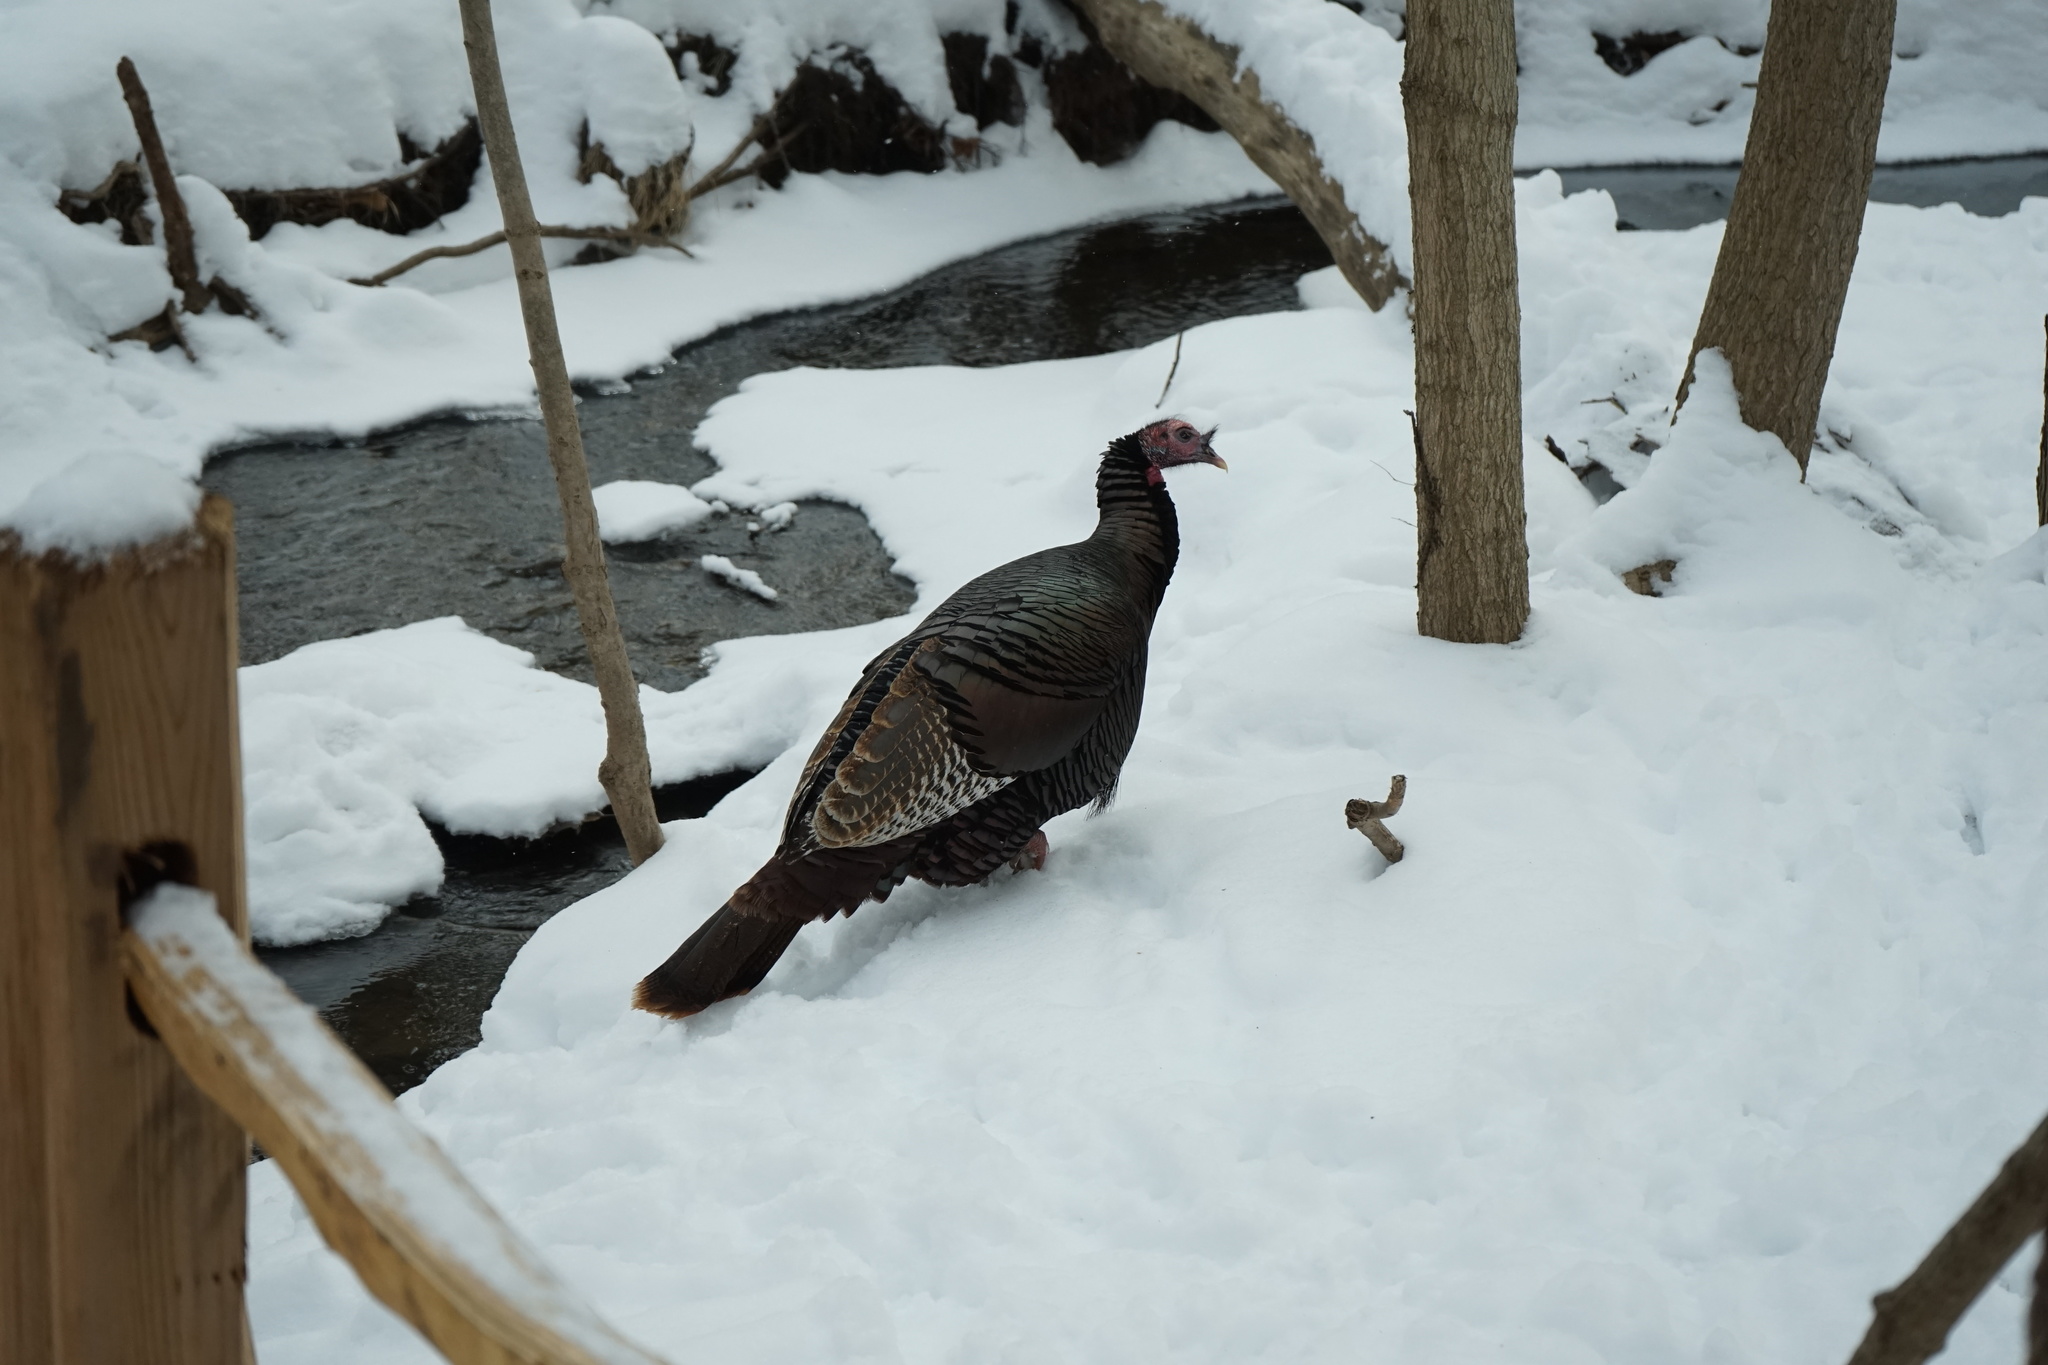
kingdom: Animalia
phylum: Chordata
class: Aves
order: Galliformes
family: Phasianidae
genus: Meleagris
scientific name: Meleagris gallopavo
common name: Wild turkey
